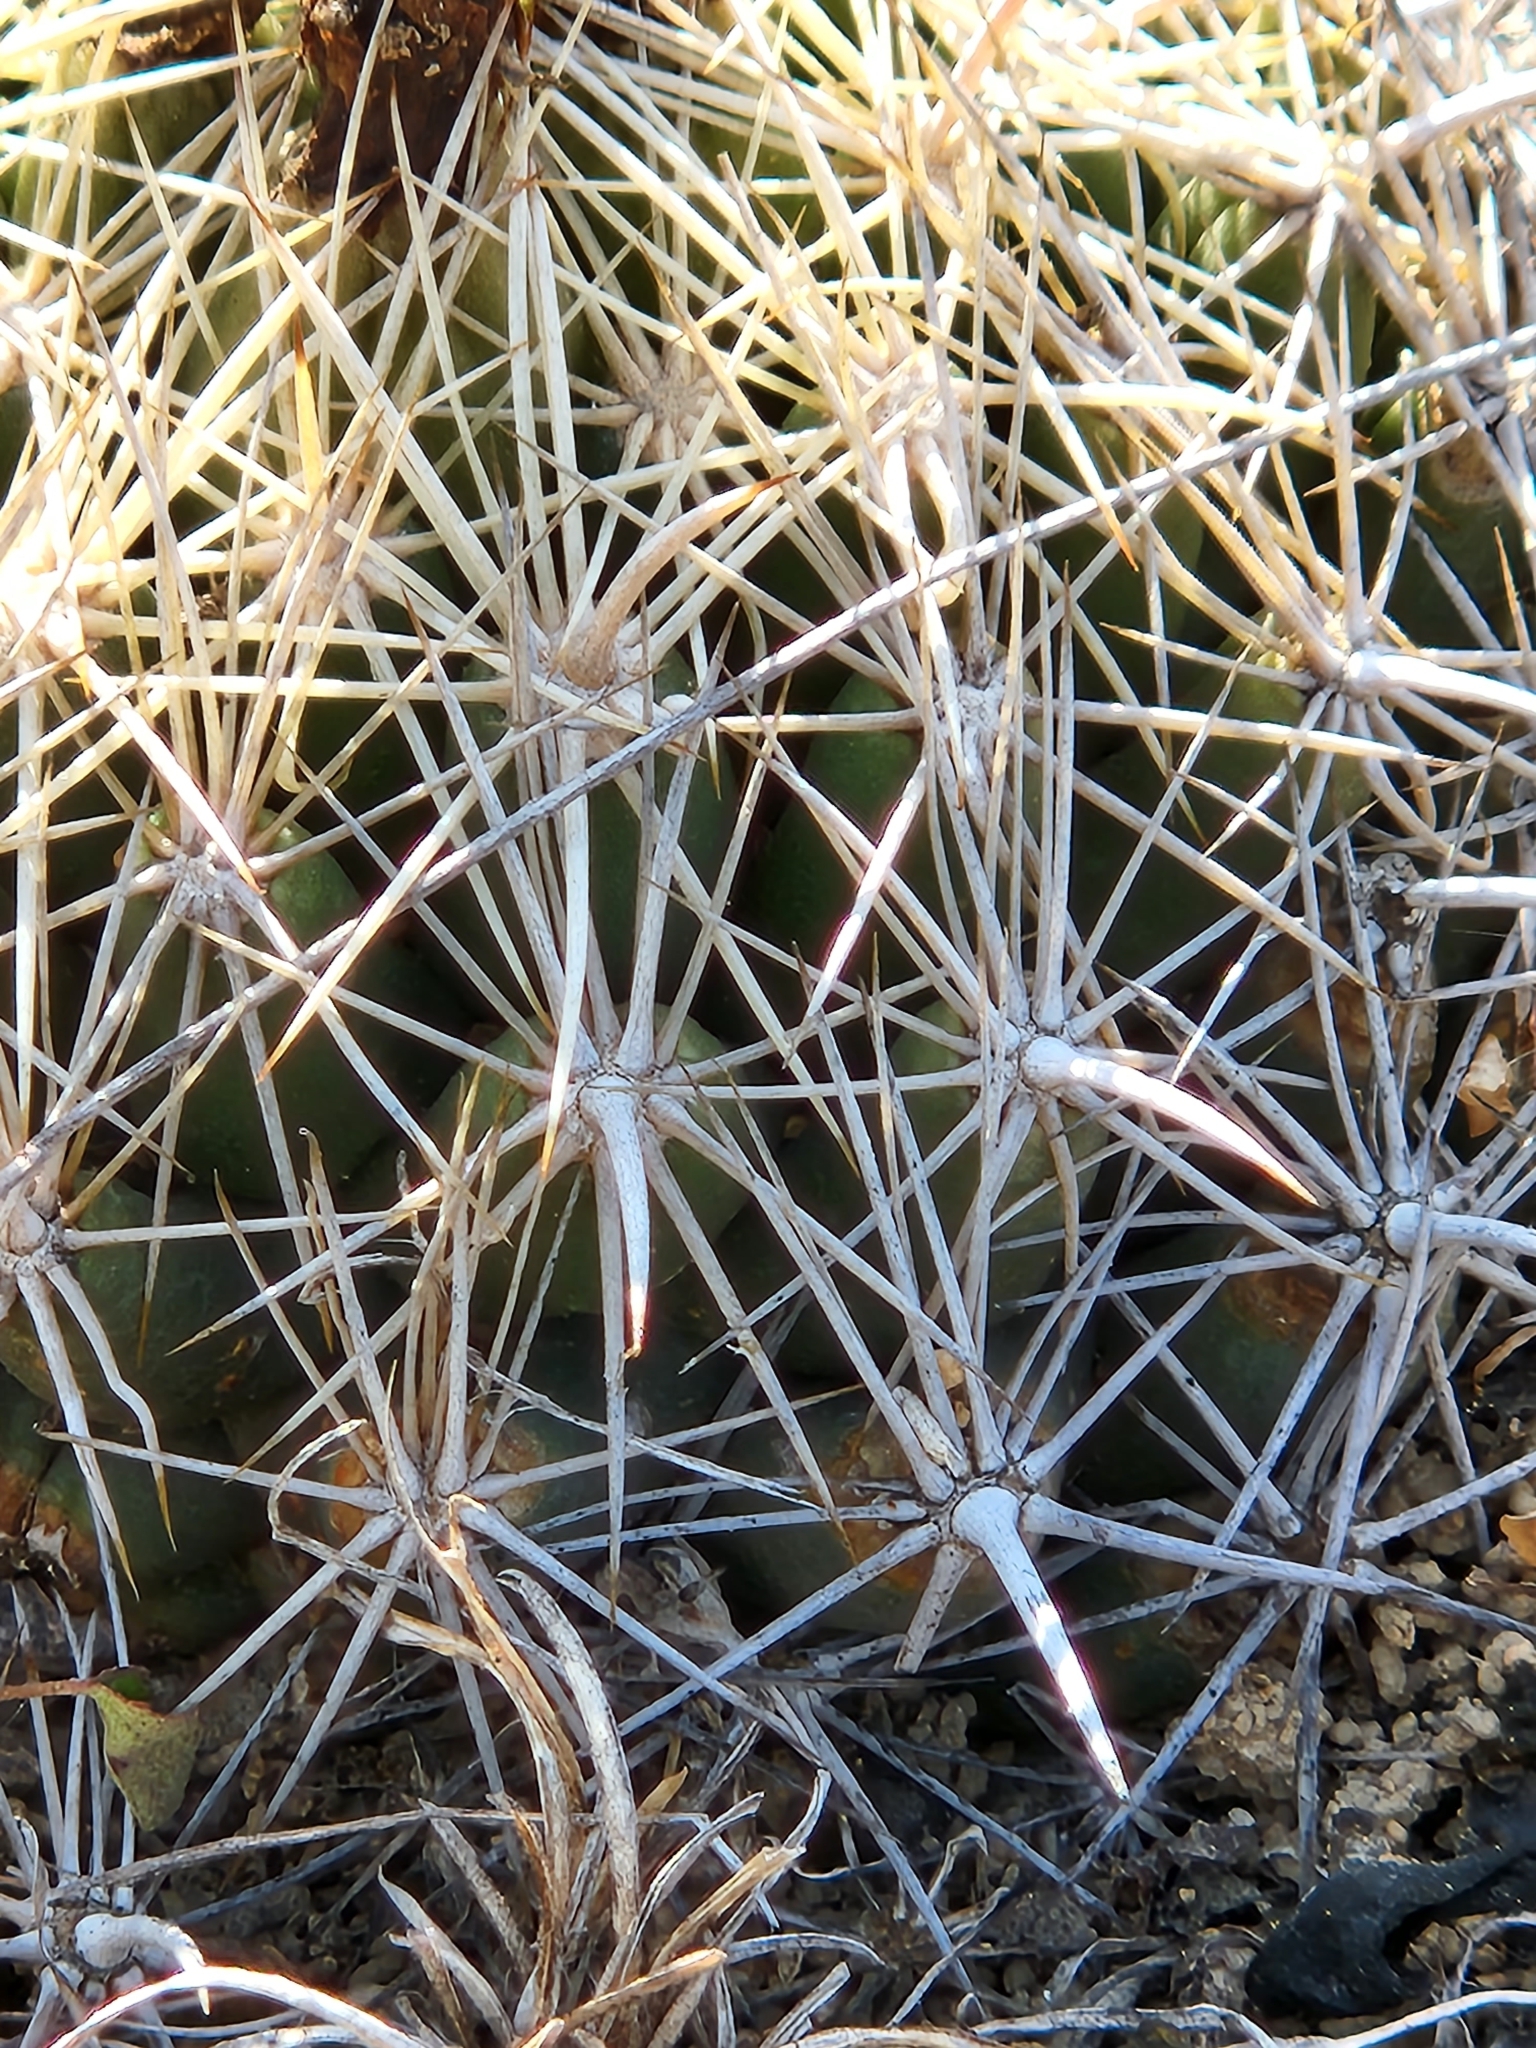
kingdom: Plantae
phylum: Tracheophyta
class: Magnoliopsida
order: Caryophyllales
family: Cactaceae
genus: Coryphantha
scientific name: Coryphantha sulcata
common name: Finger cactus
